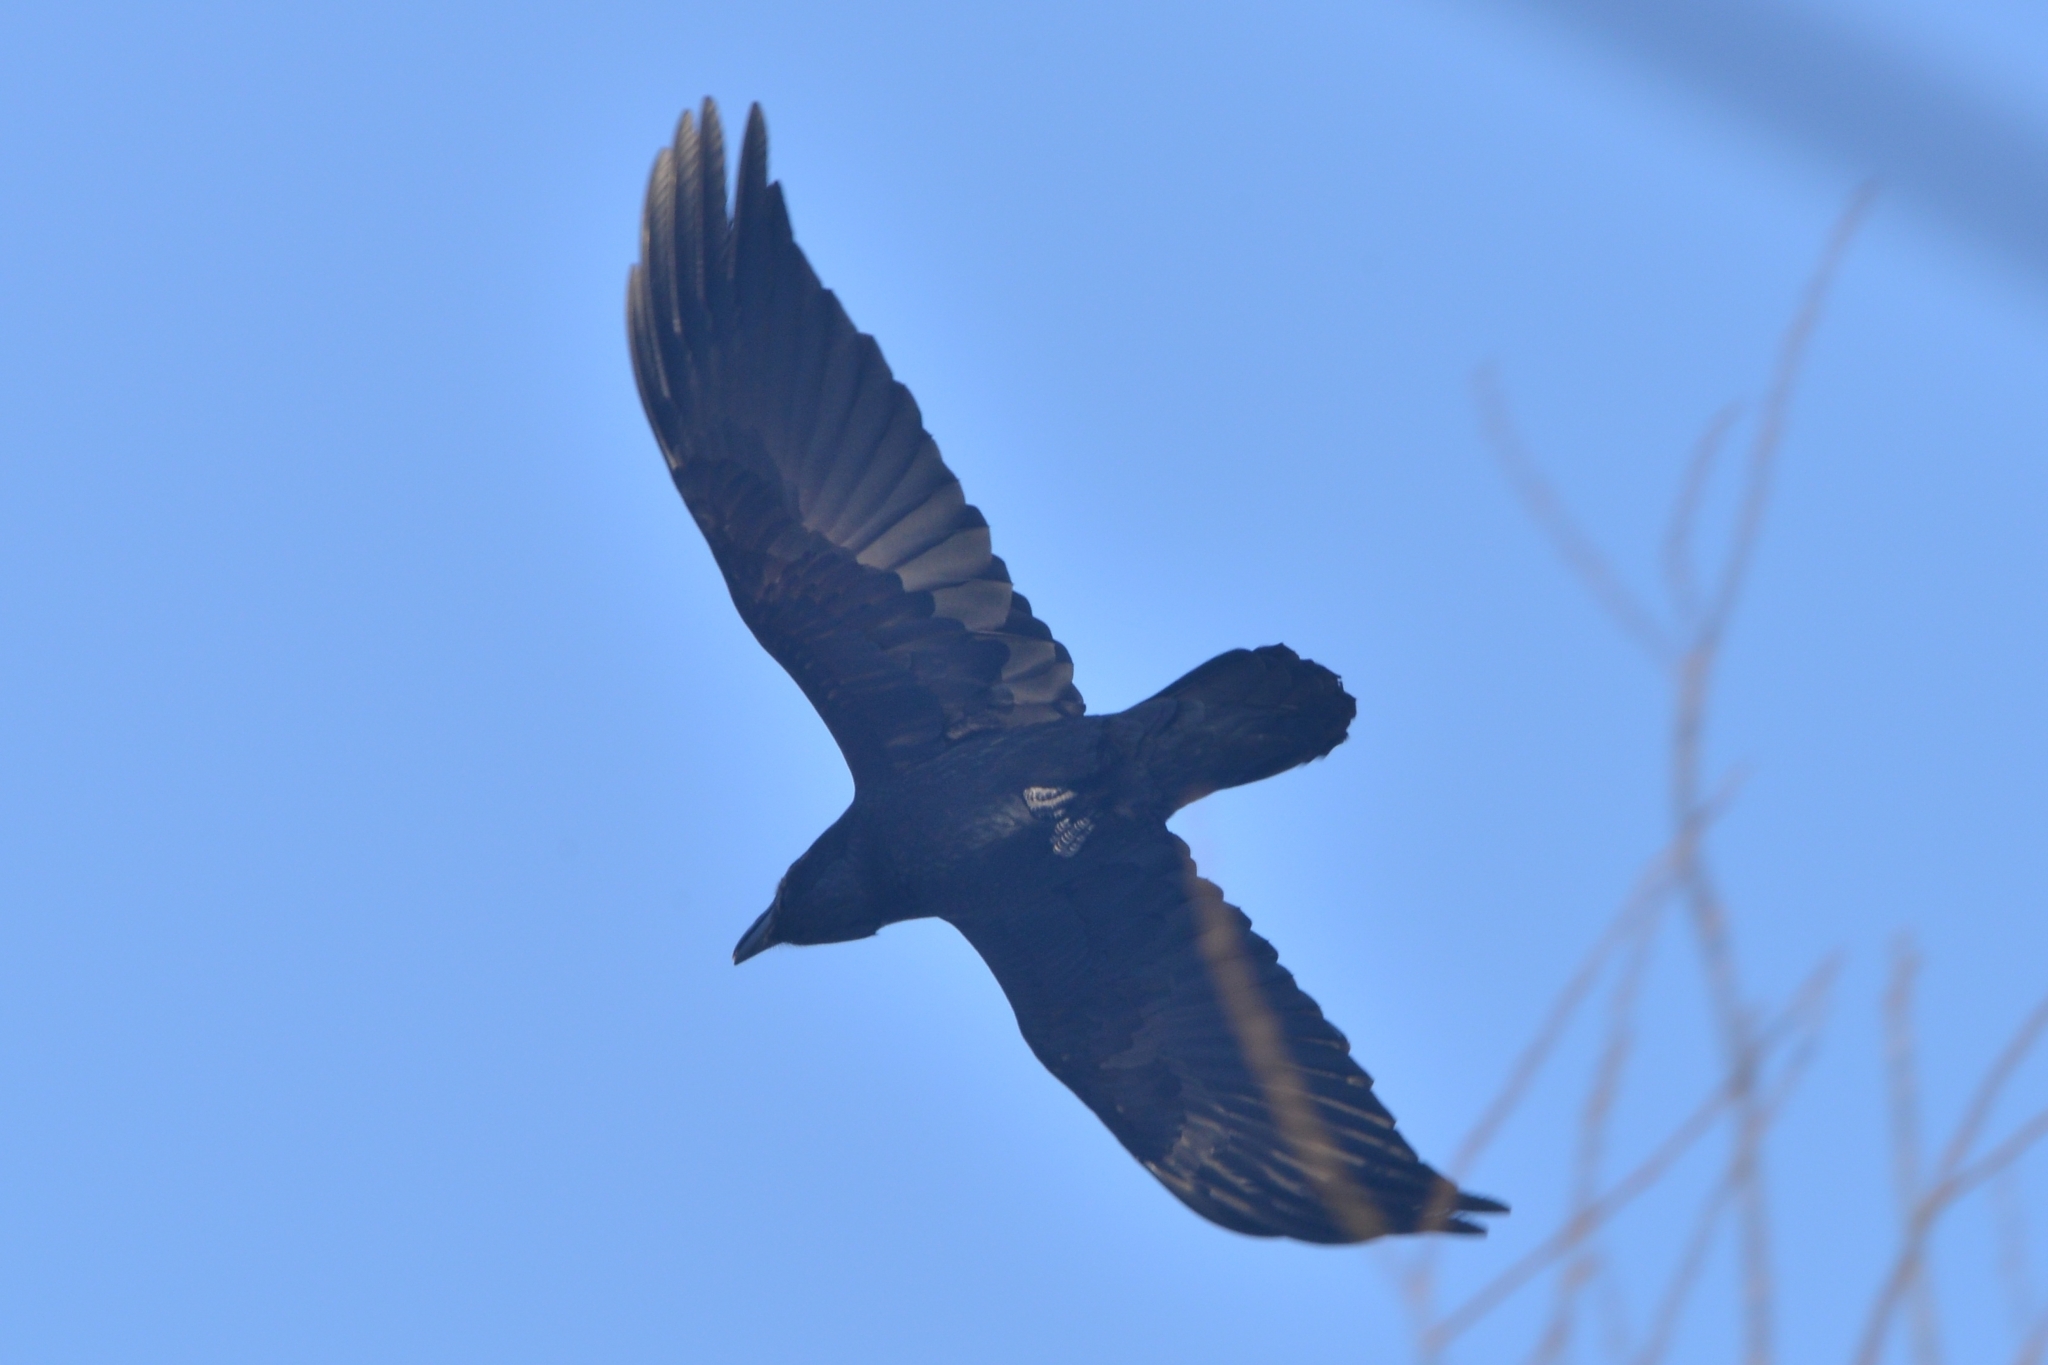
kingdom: Animalia
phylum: Chordata
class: Aves
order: Passeriformes
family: Corvidae
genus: Corvus
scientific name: Corvus corax
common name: Common raven
